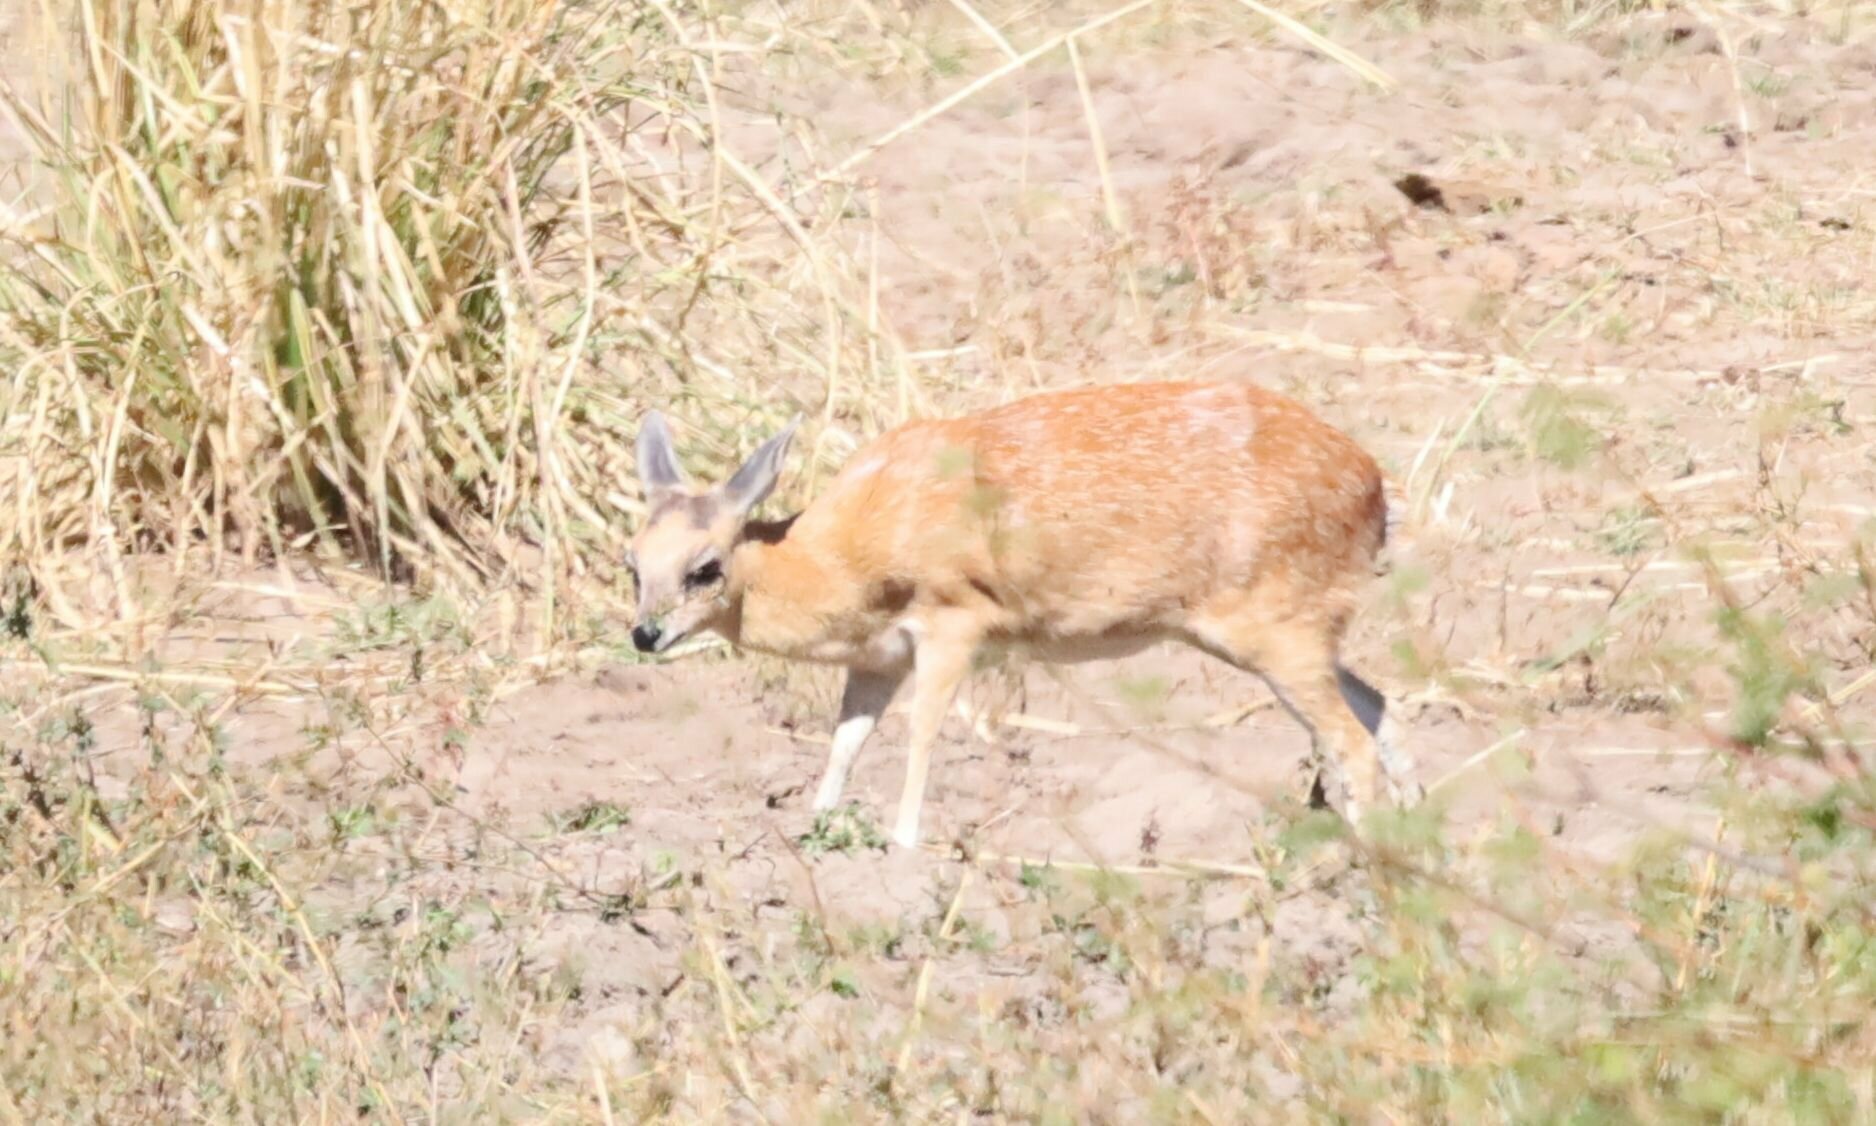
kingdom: Animalia
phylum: Chordata
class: Mammalia
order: Artiodactyla
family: Bovidae
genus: Raphicerus
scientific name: Raphicerus sharpei
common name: Sharpe's grysbok
